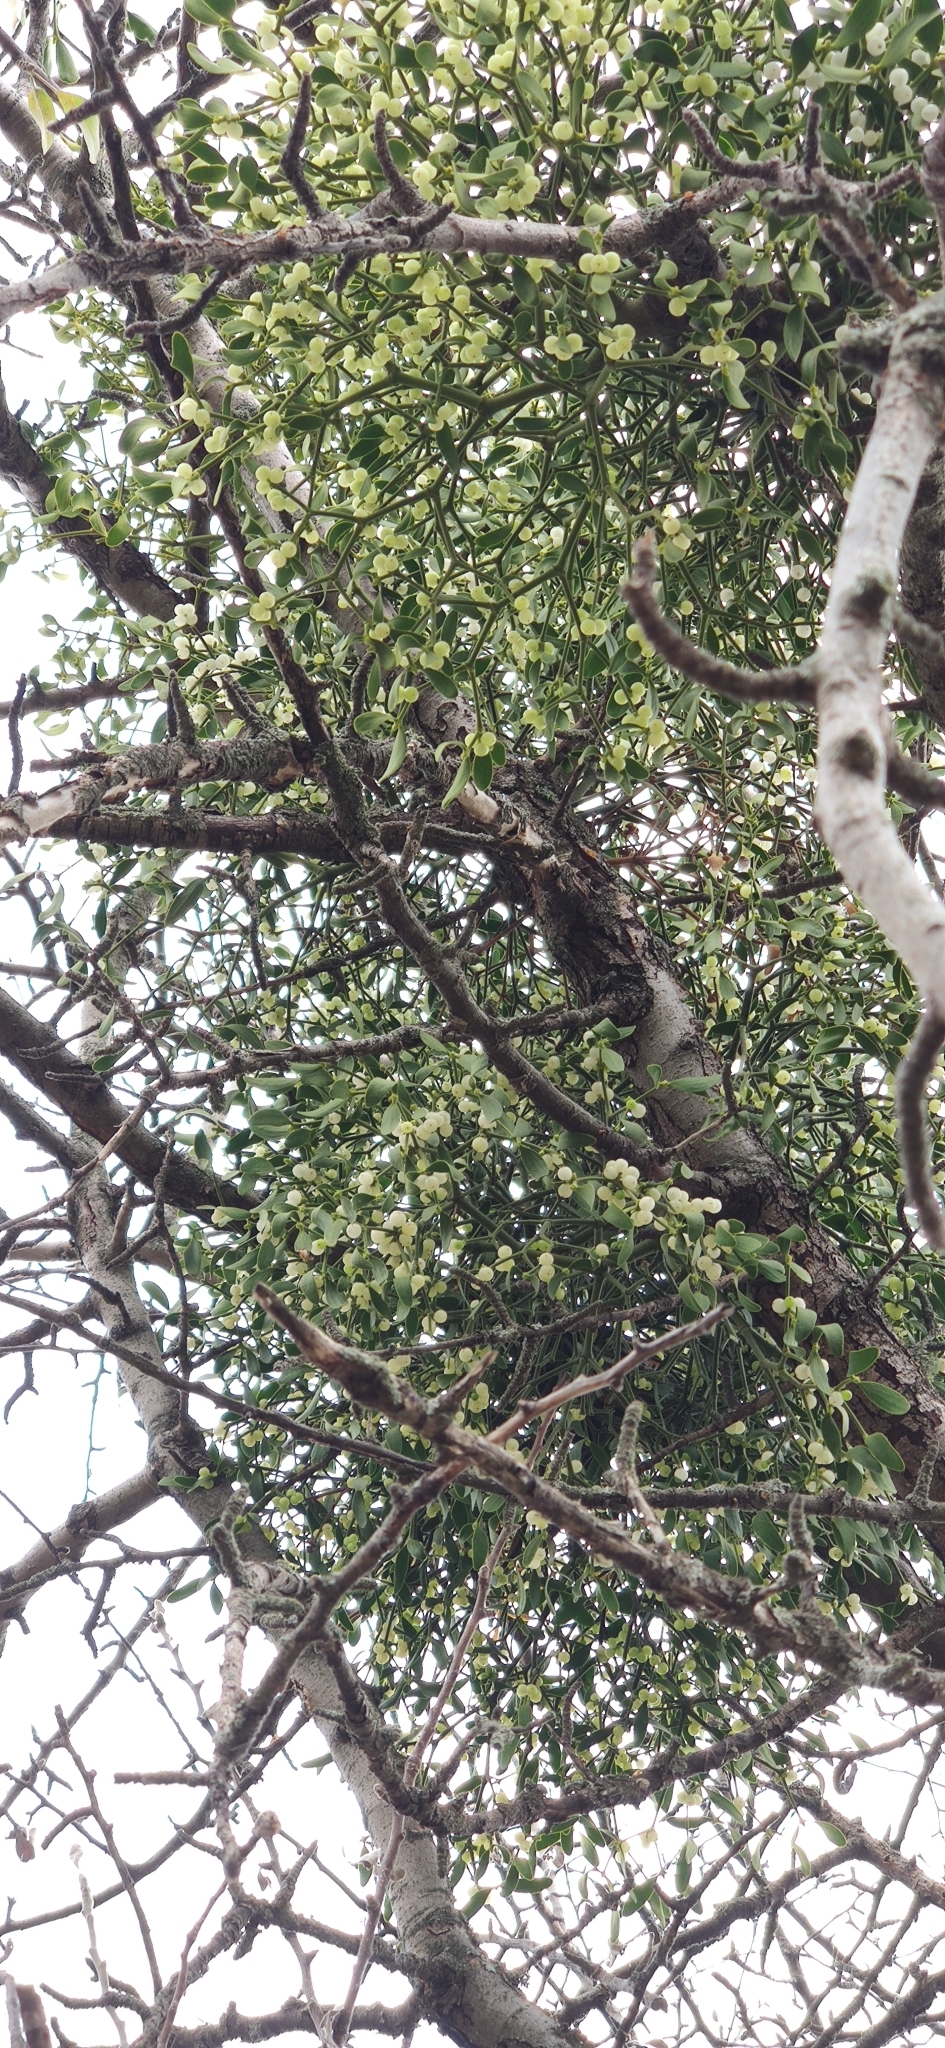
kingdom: Plantae
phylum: Tracheophyta
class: Magnoliopsida
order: Santalales
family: Viscaceae
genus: Viscum
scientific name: Viscum album
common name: Mistletoe
